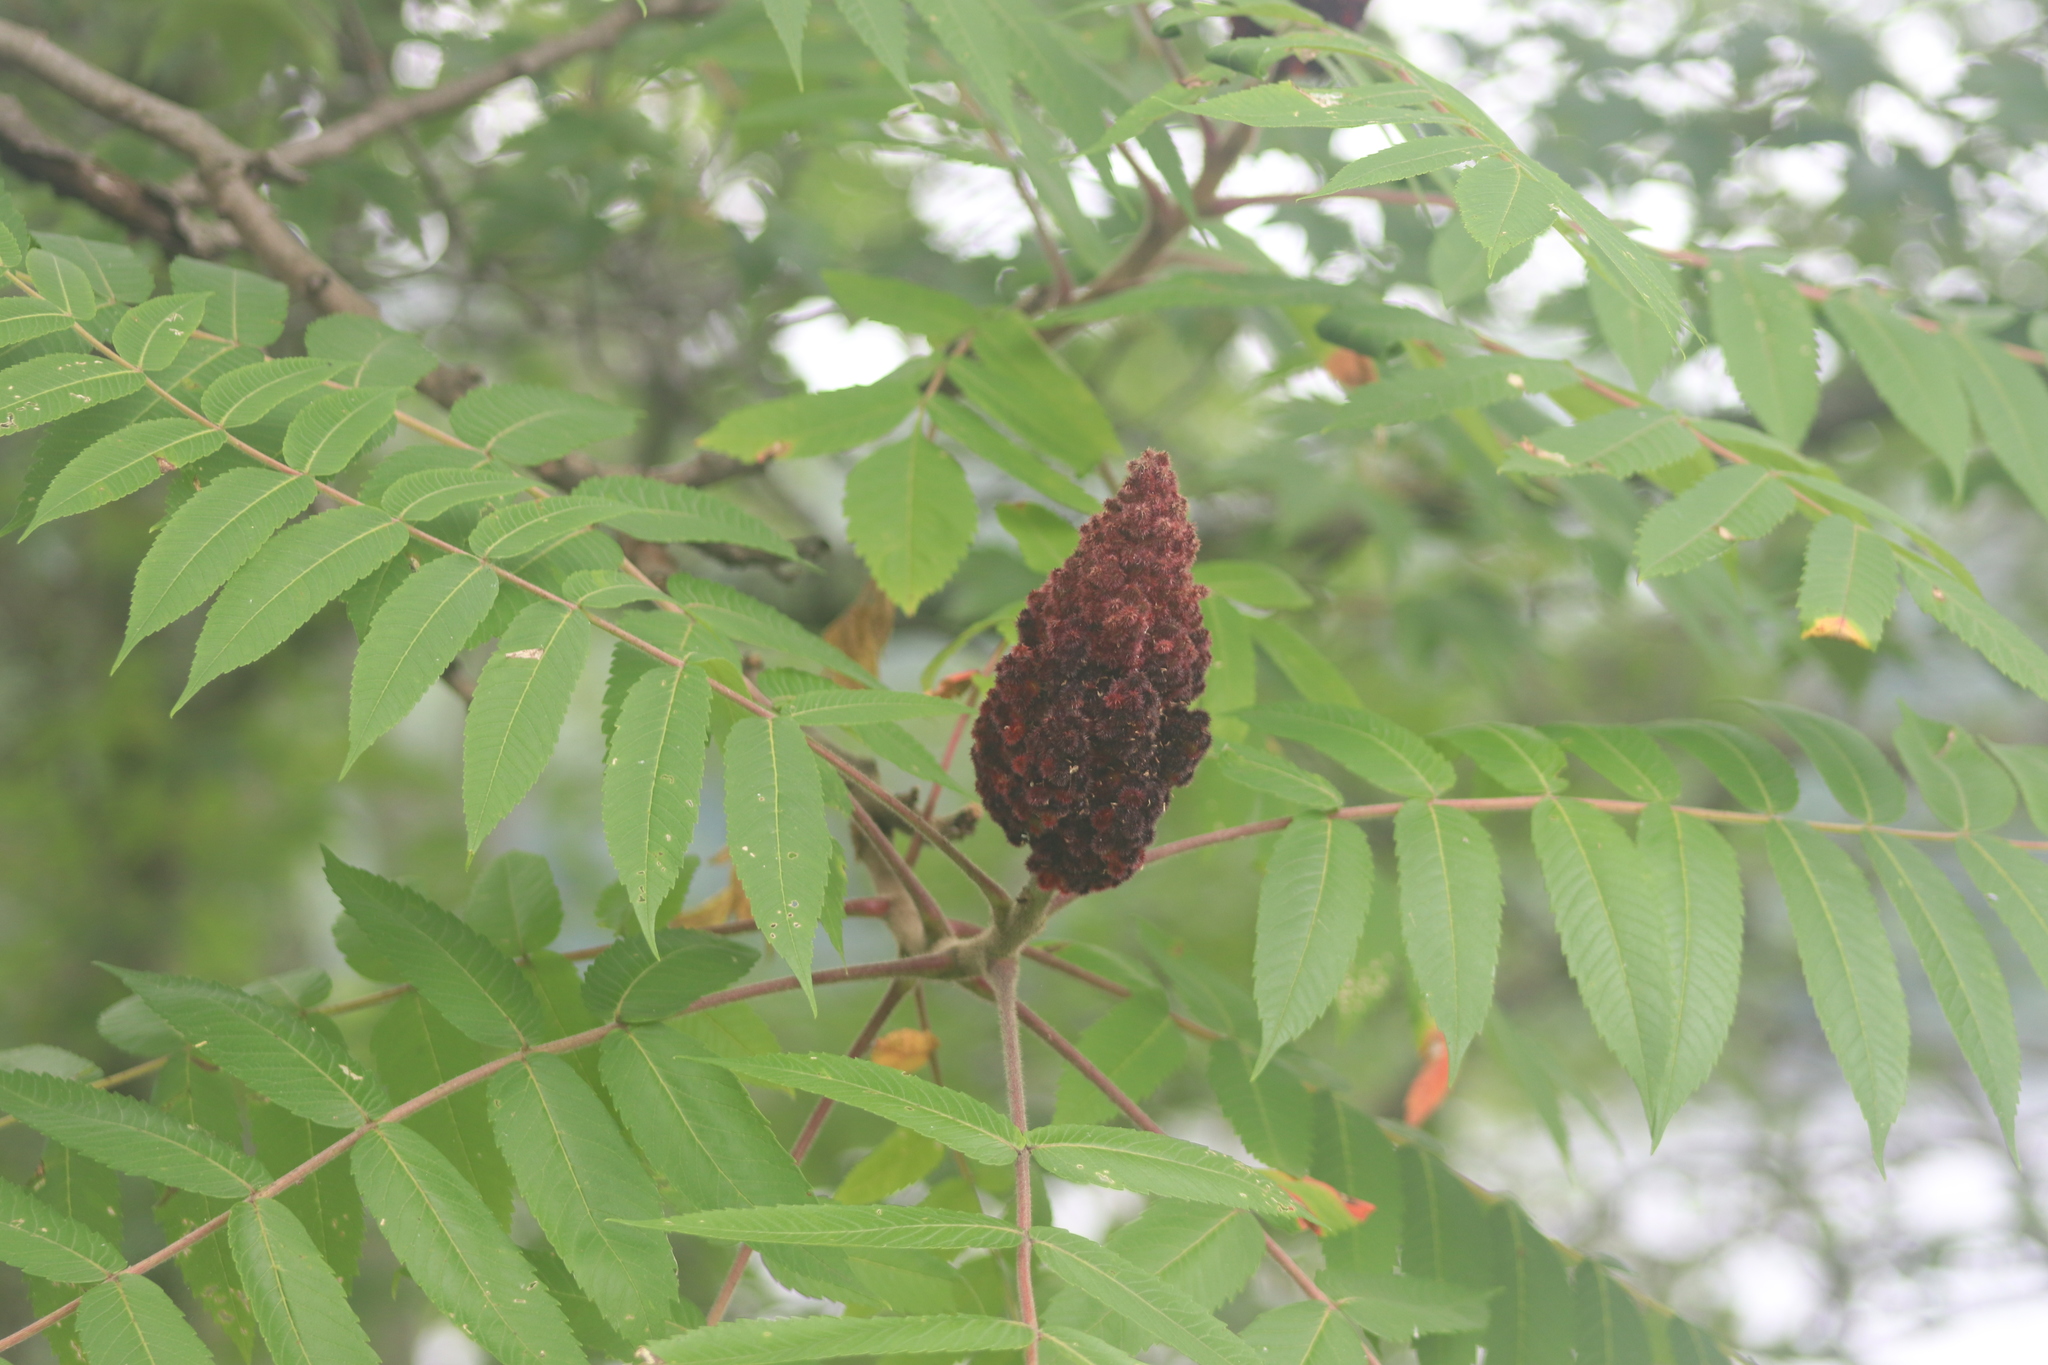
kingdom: Plantae
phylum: Tracheophyta
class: Magnoliopsida
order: Sapindales
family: Anacardiaceae
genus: Rhus
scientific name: Rhus typhina
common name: Staghorn sumac
